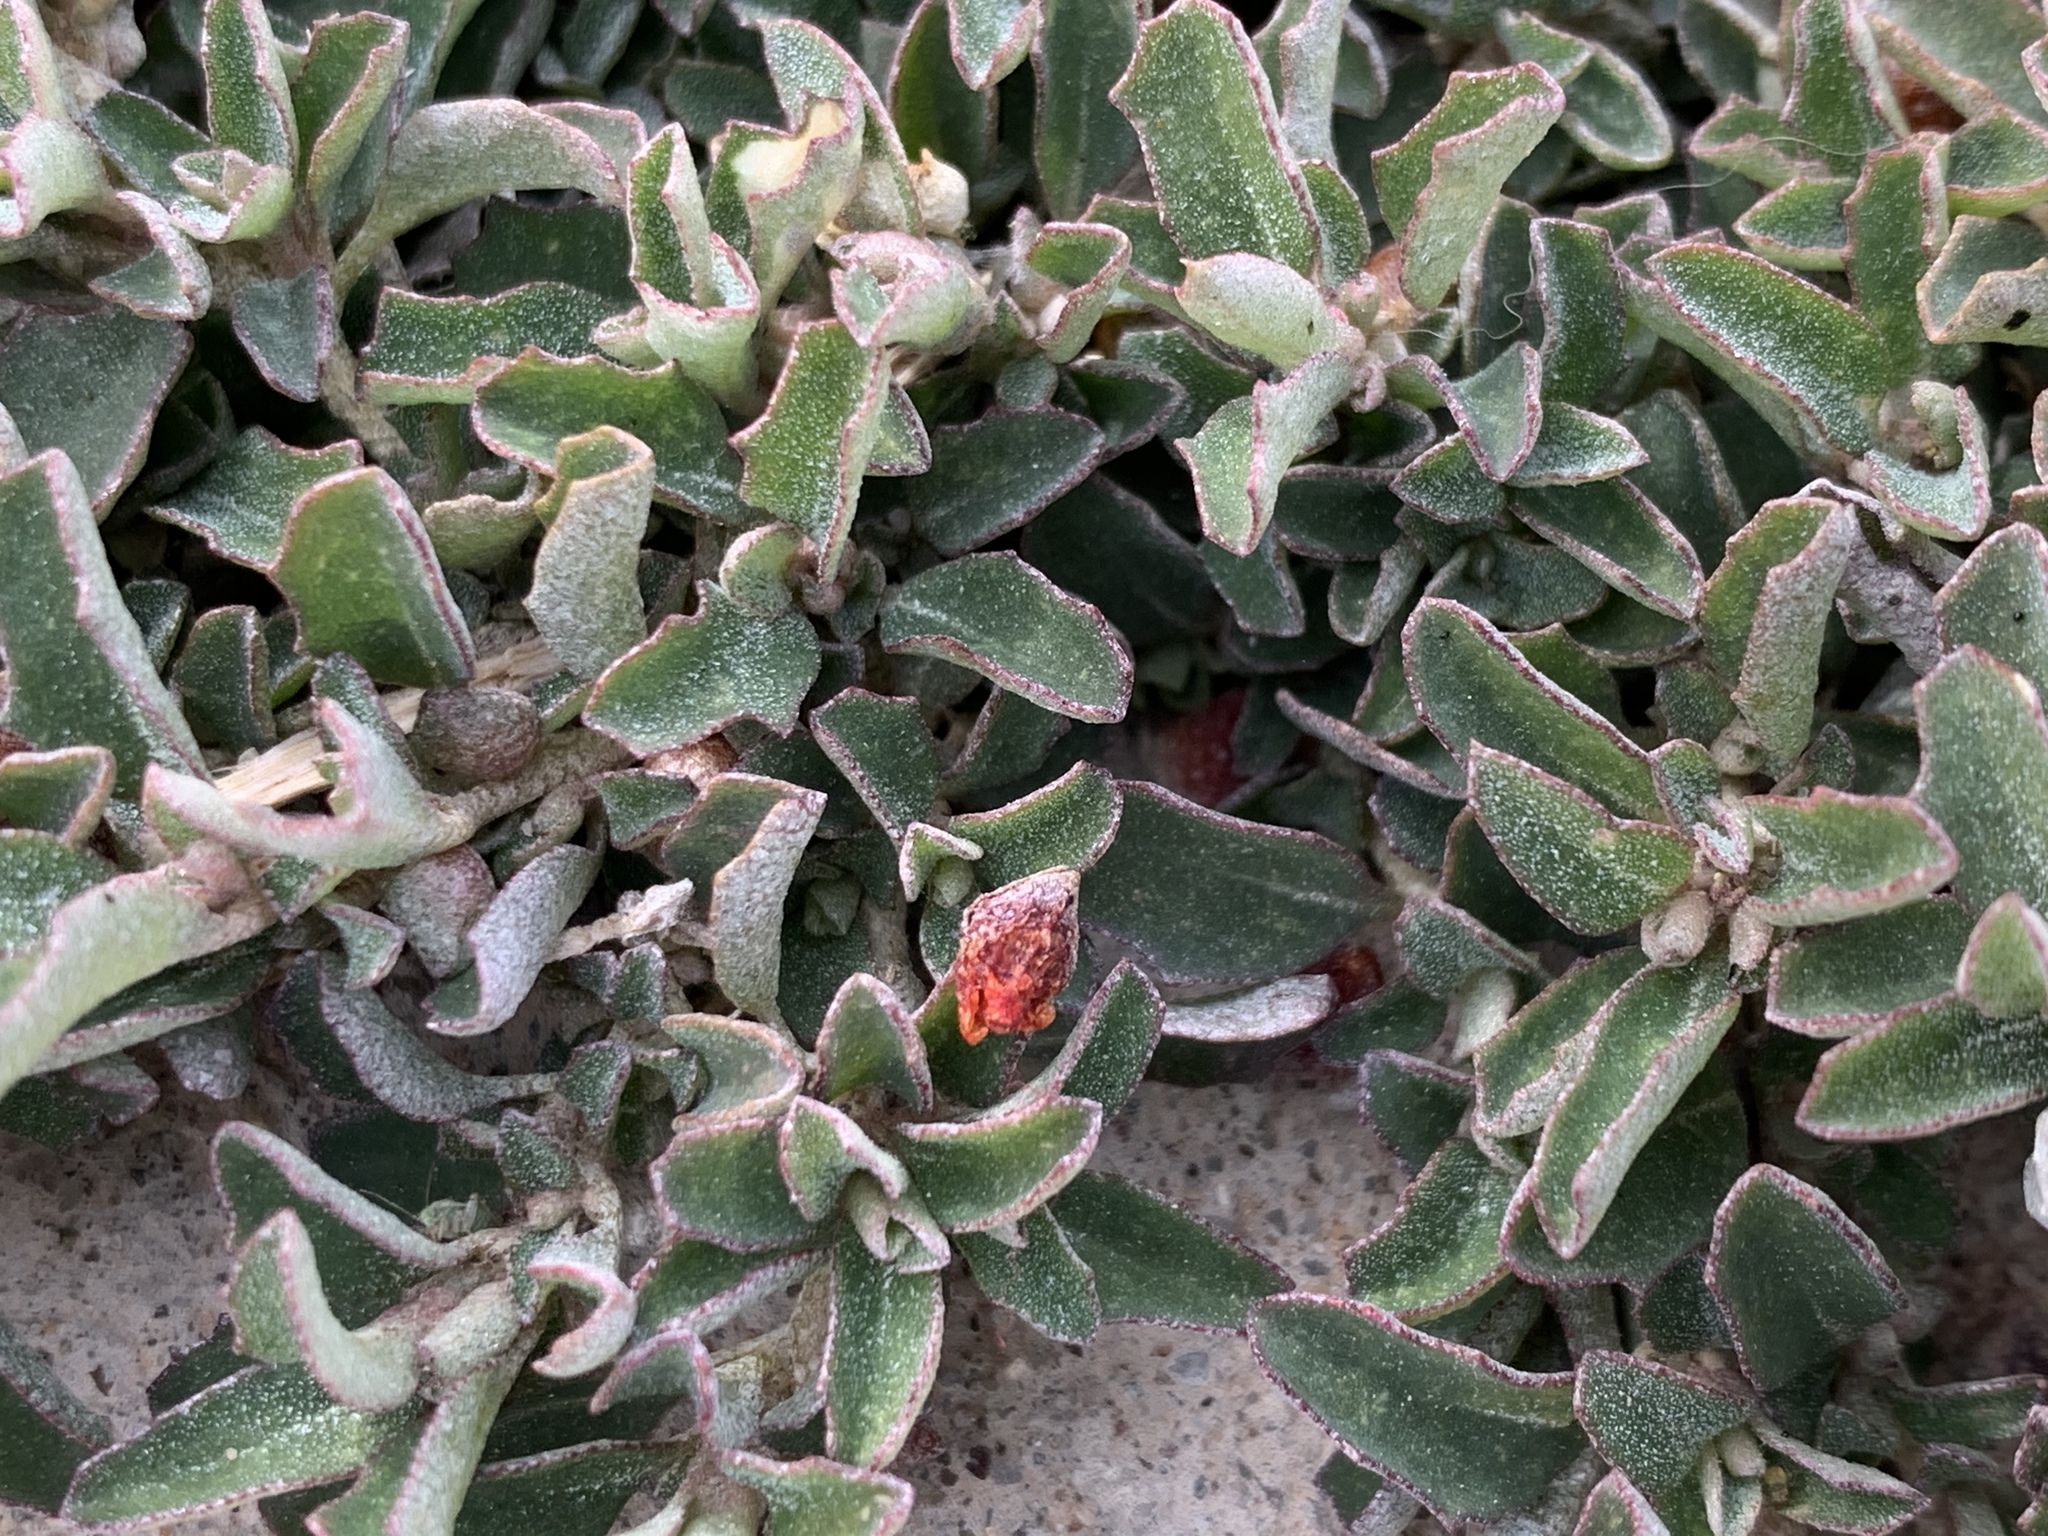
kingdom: Plantae
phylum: Tracheophyta
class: Magnoliopsida
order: Caryophyllales
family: Amaranthaceae
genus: Atriplex
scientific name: Atriplex semibaccata
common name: Australian saltbush
